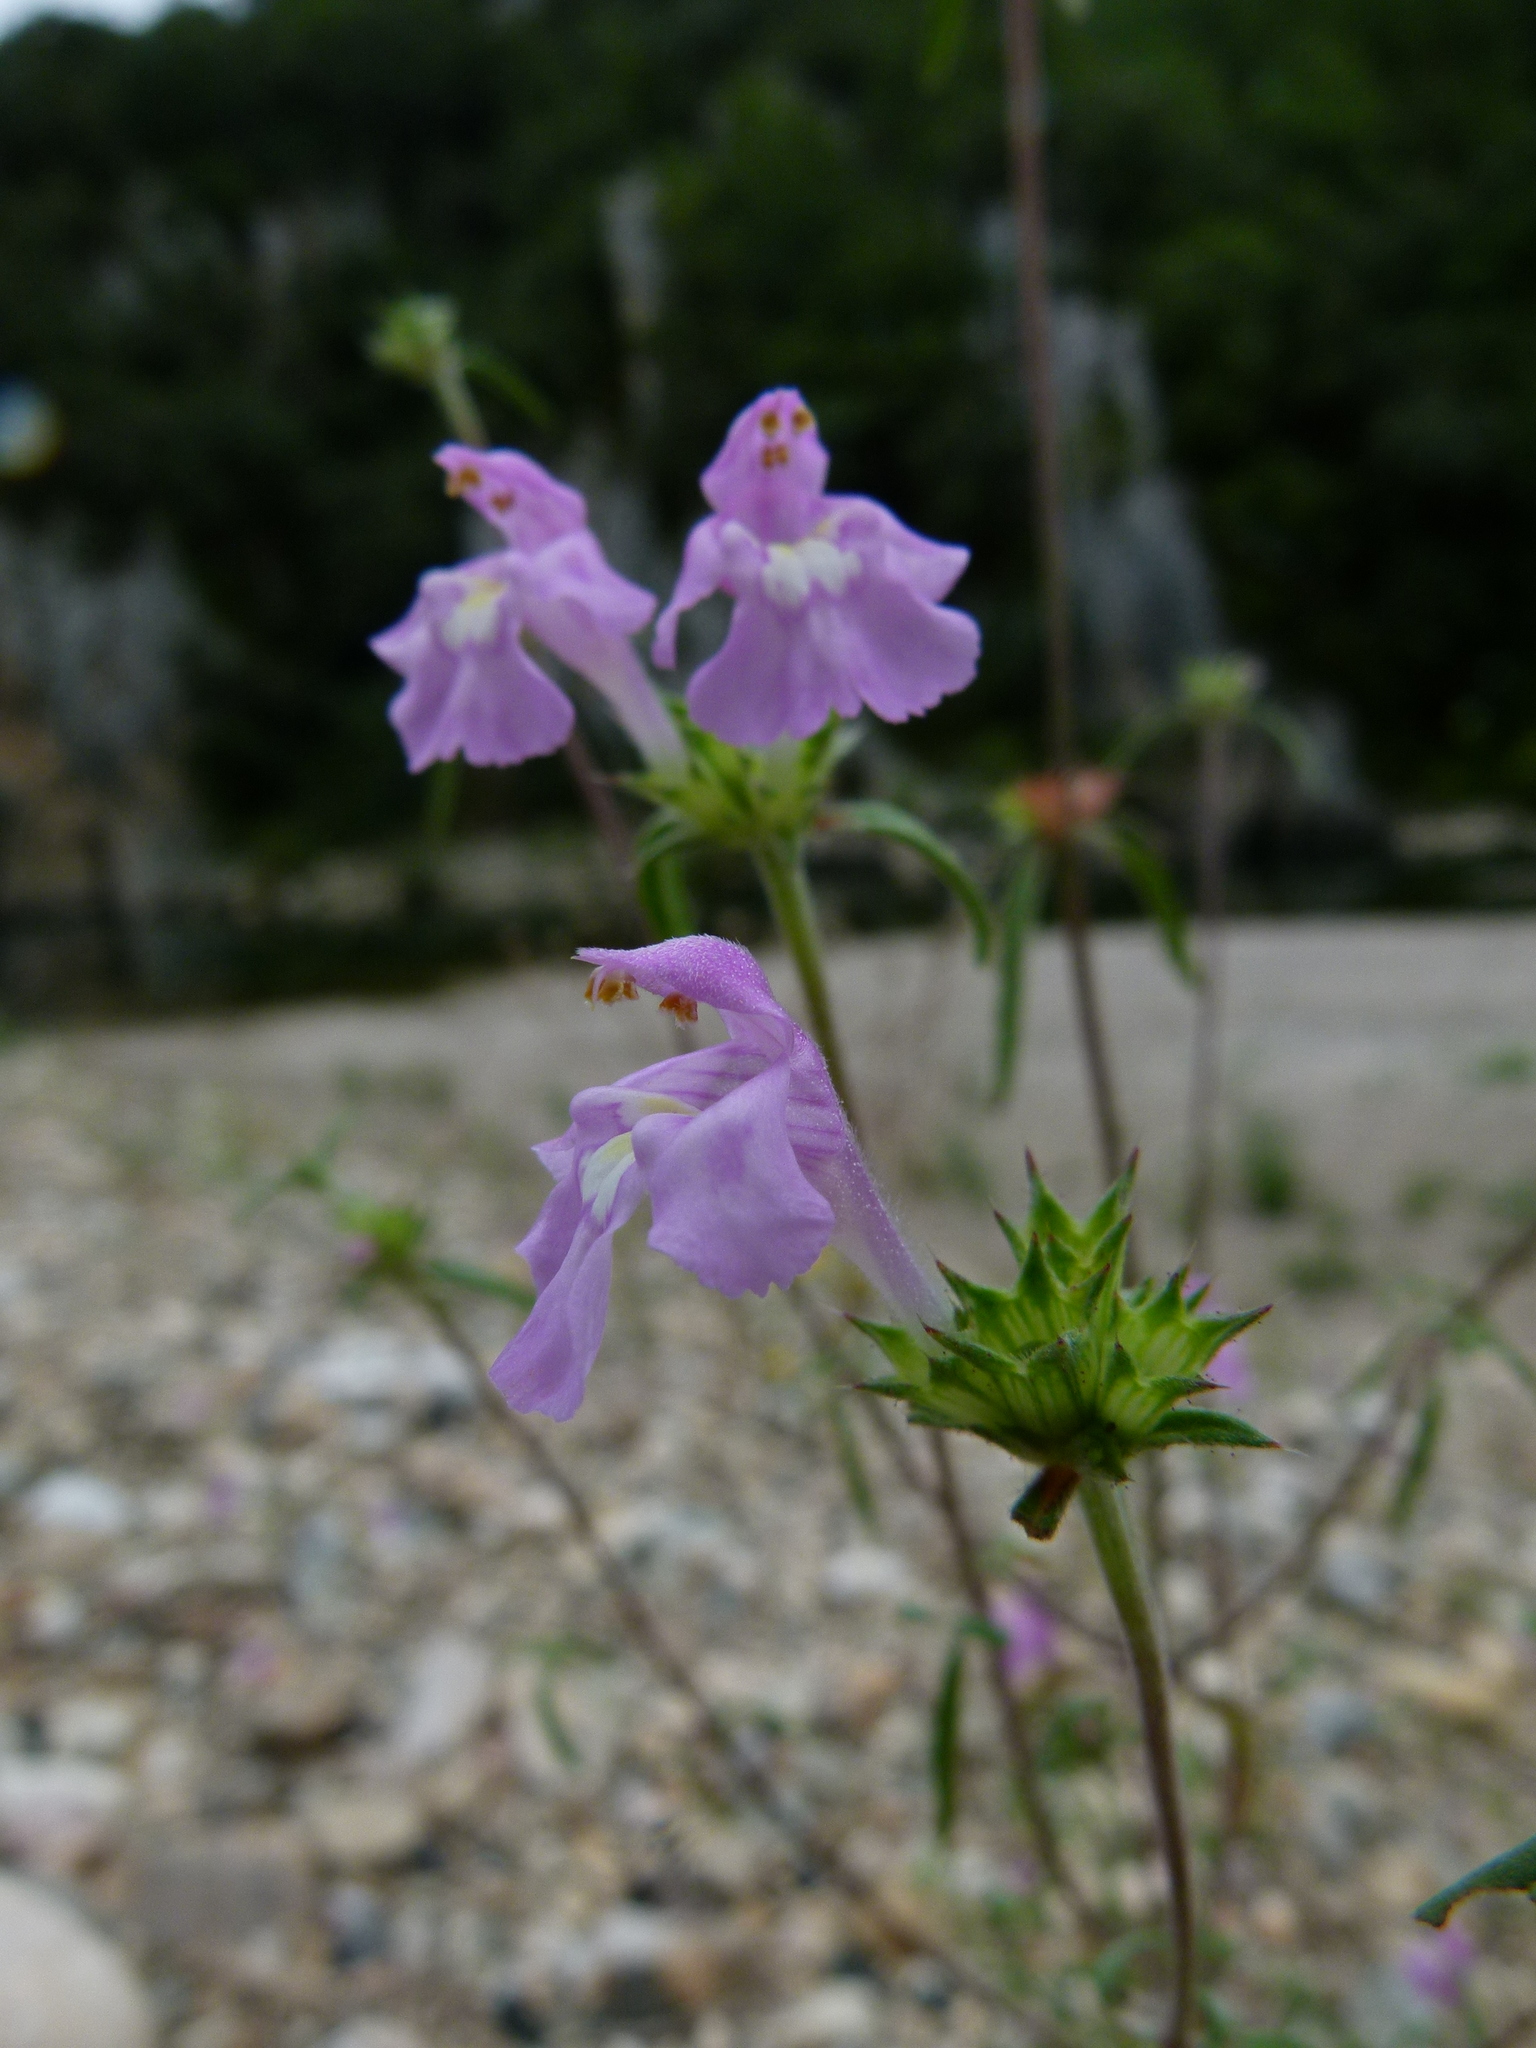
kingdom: Plantae
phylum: Tracheophyta
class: Magnoliopsida
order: Lamiales
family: Lamiaceae
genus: Galeopsis
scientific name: Galeopsis angustifolia
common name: Red hemp-nettle
